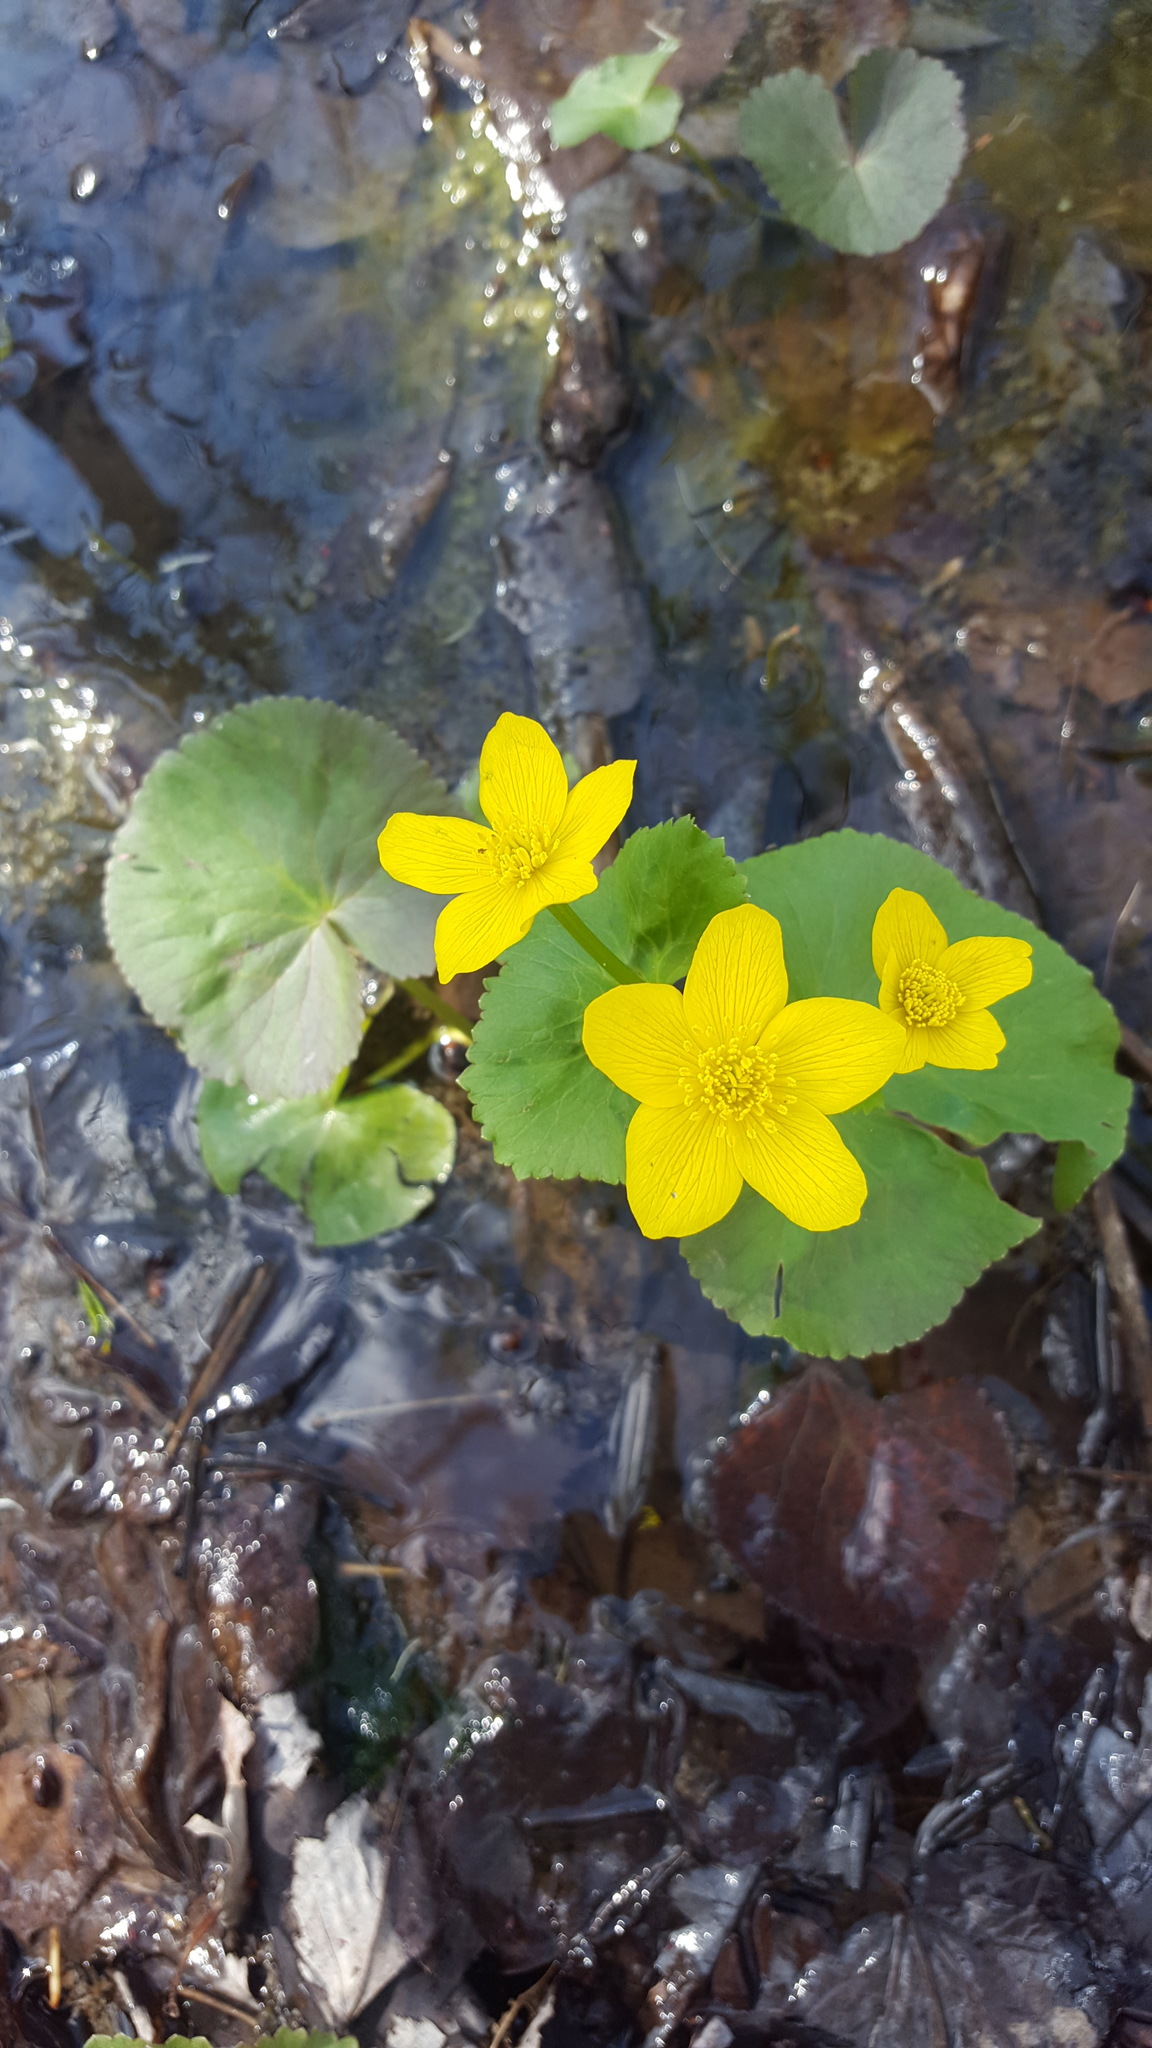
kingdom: Plantae
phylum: Tracheophyta
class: Magnoliopsida
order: Ranunculales
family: Ranunculaceae
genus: Caltha
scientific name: Caltha palustris
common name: Marsh marigold
